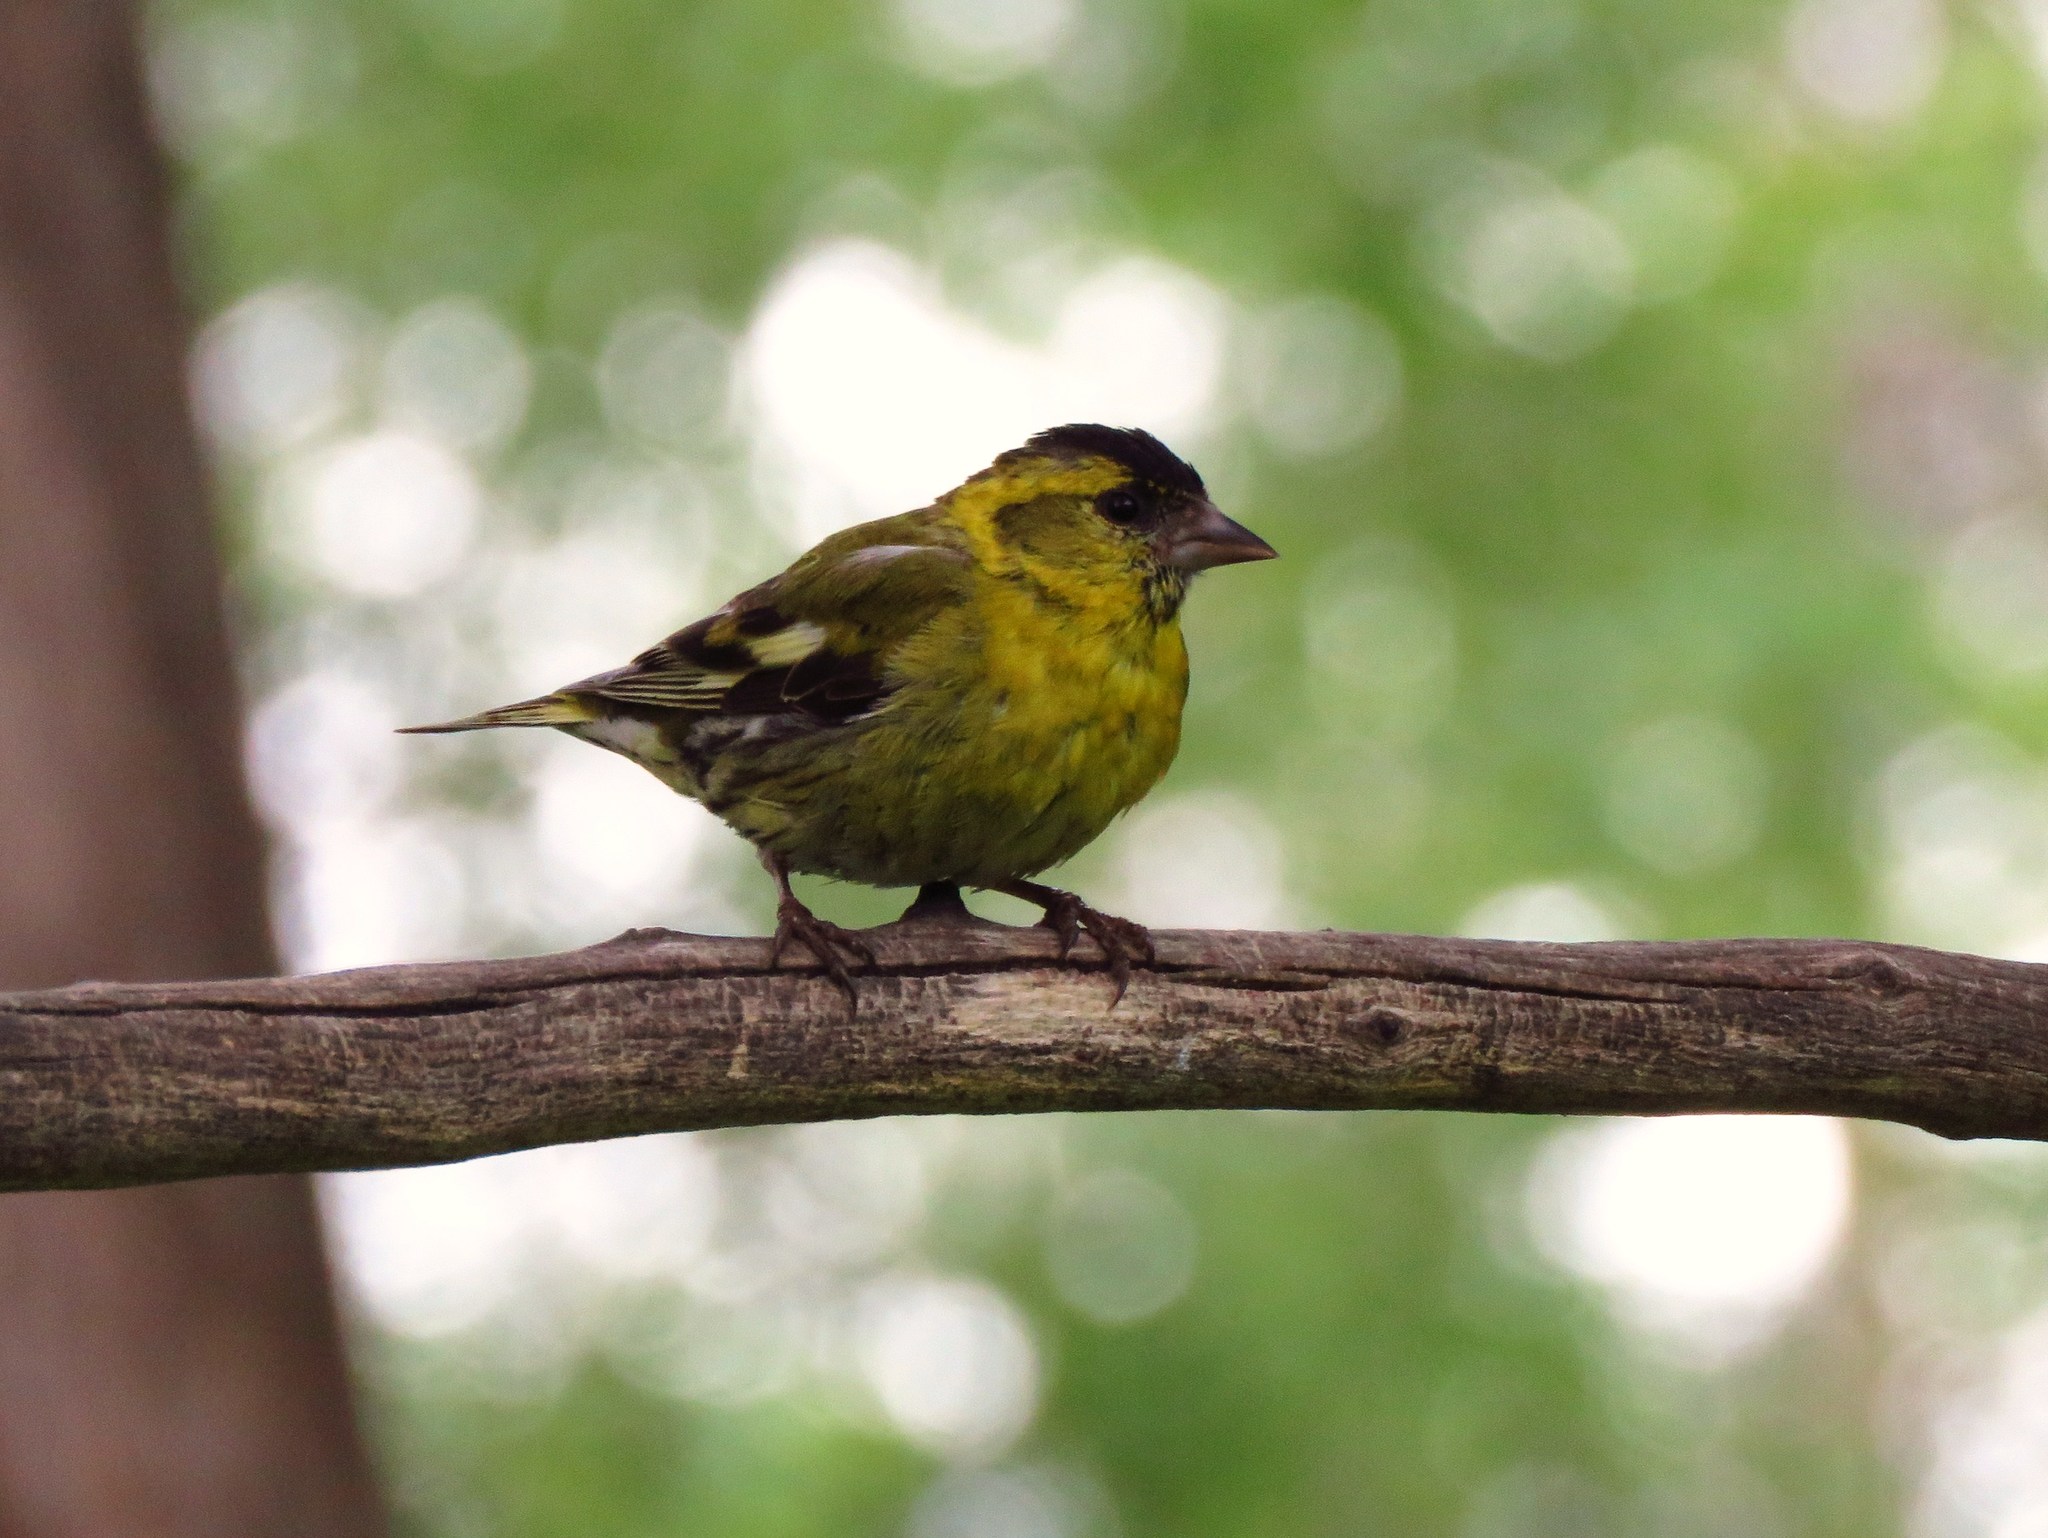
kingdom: Animalia
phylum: Chordata
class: Aves
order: Passeriformes
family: Fringillidae
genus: Spinus
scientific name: Spinus spinus
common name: Eurasian siskin
